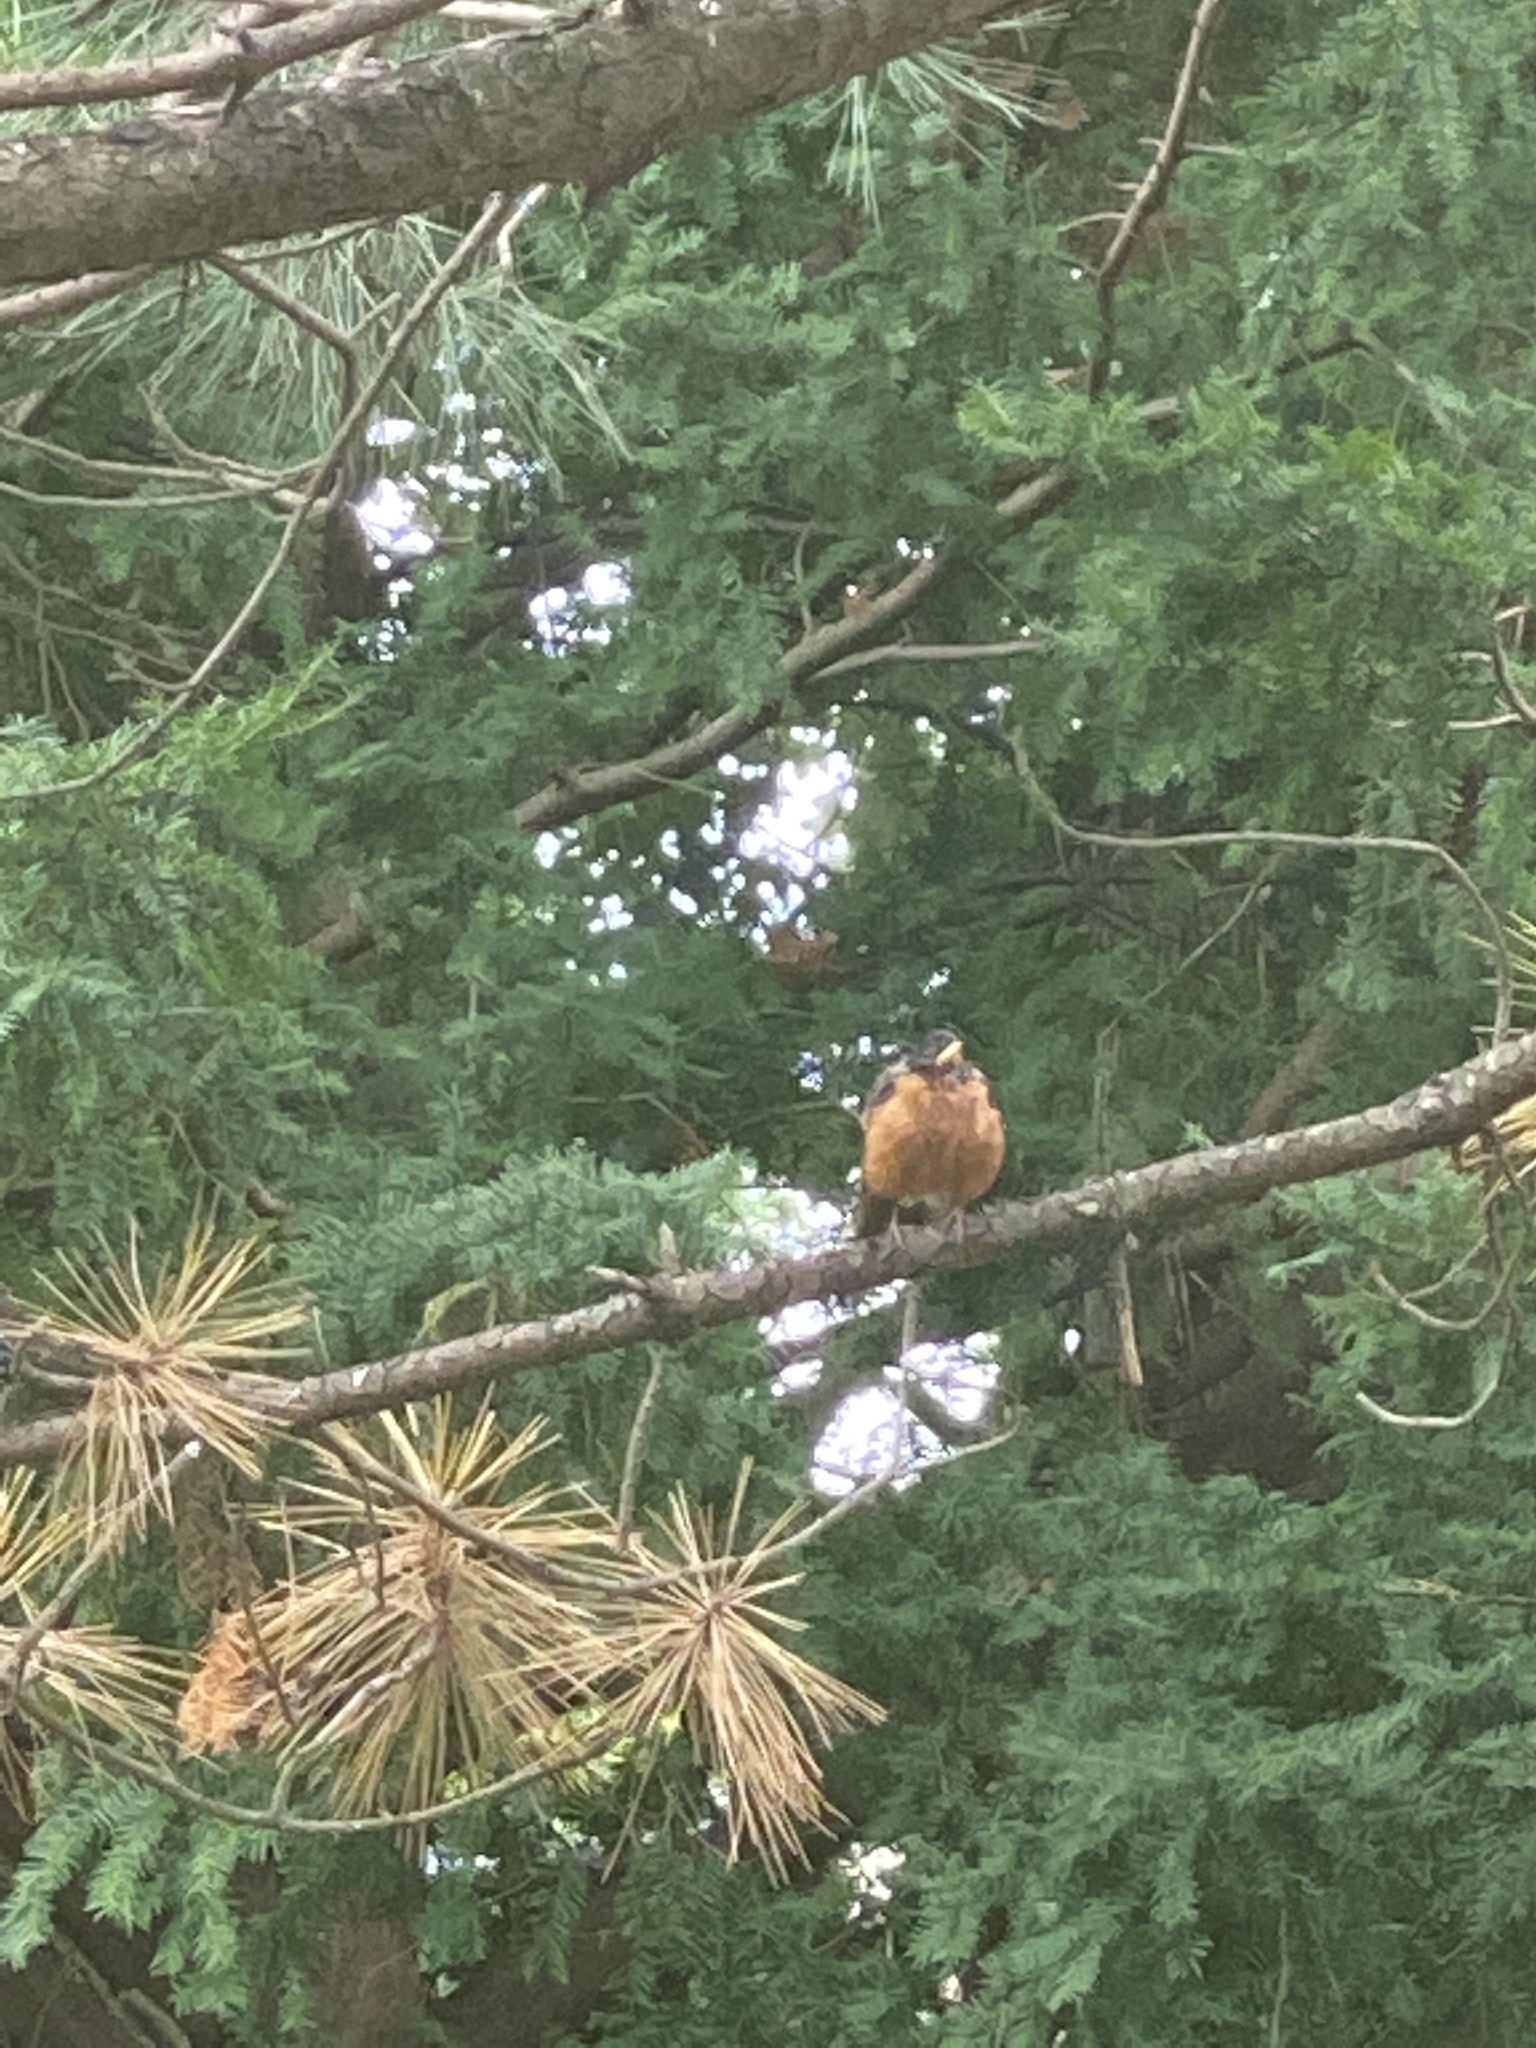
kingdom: Animalia
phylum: Chordata
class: Aves
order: Passeriformes
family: Turdidae
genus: Turdus
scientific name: Turdus migratorius
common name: American robin
